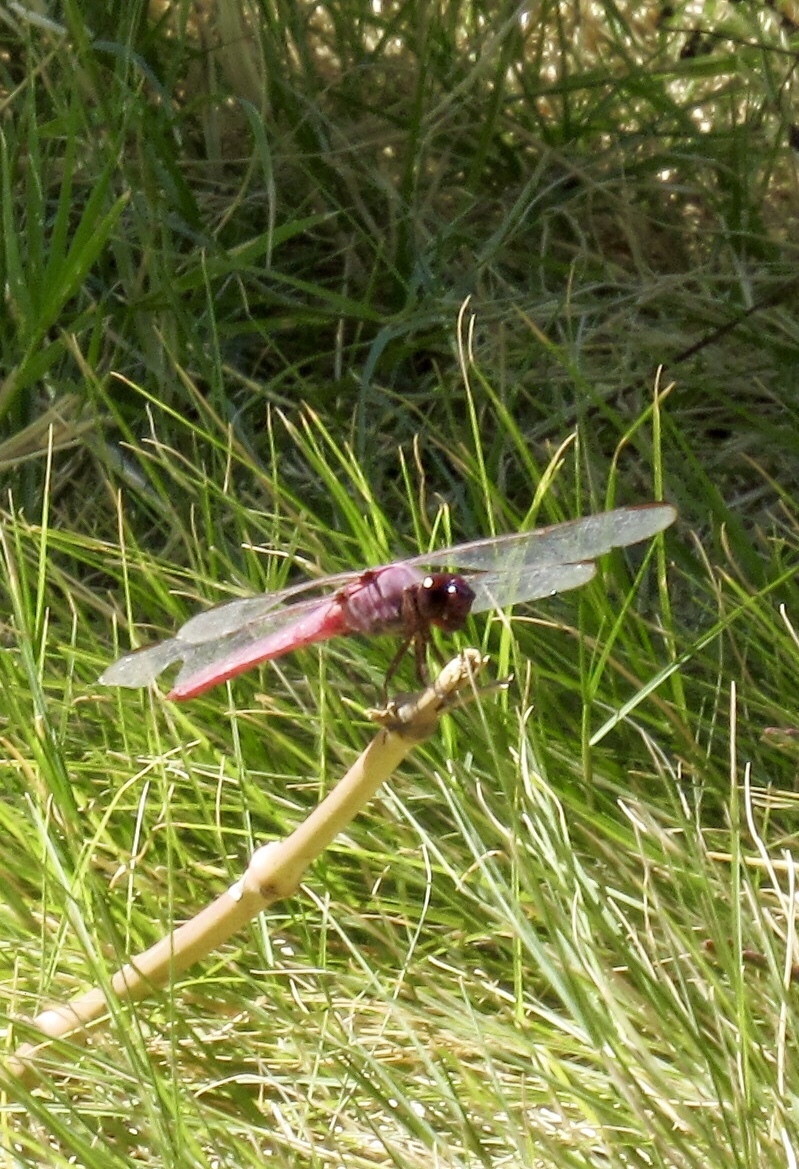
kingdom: Animalia
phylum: Arthropoda
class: Insecta
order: Odonata
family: Libellulidae
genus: Orthemis
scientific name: Orthemis ferruginea
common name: Roseate skimmer
